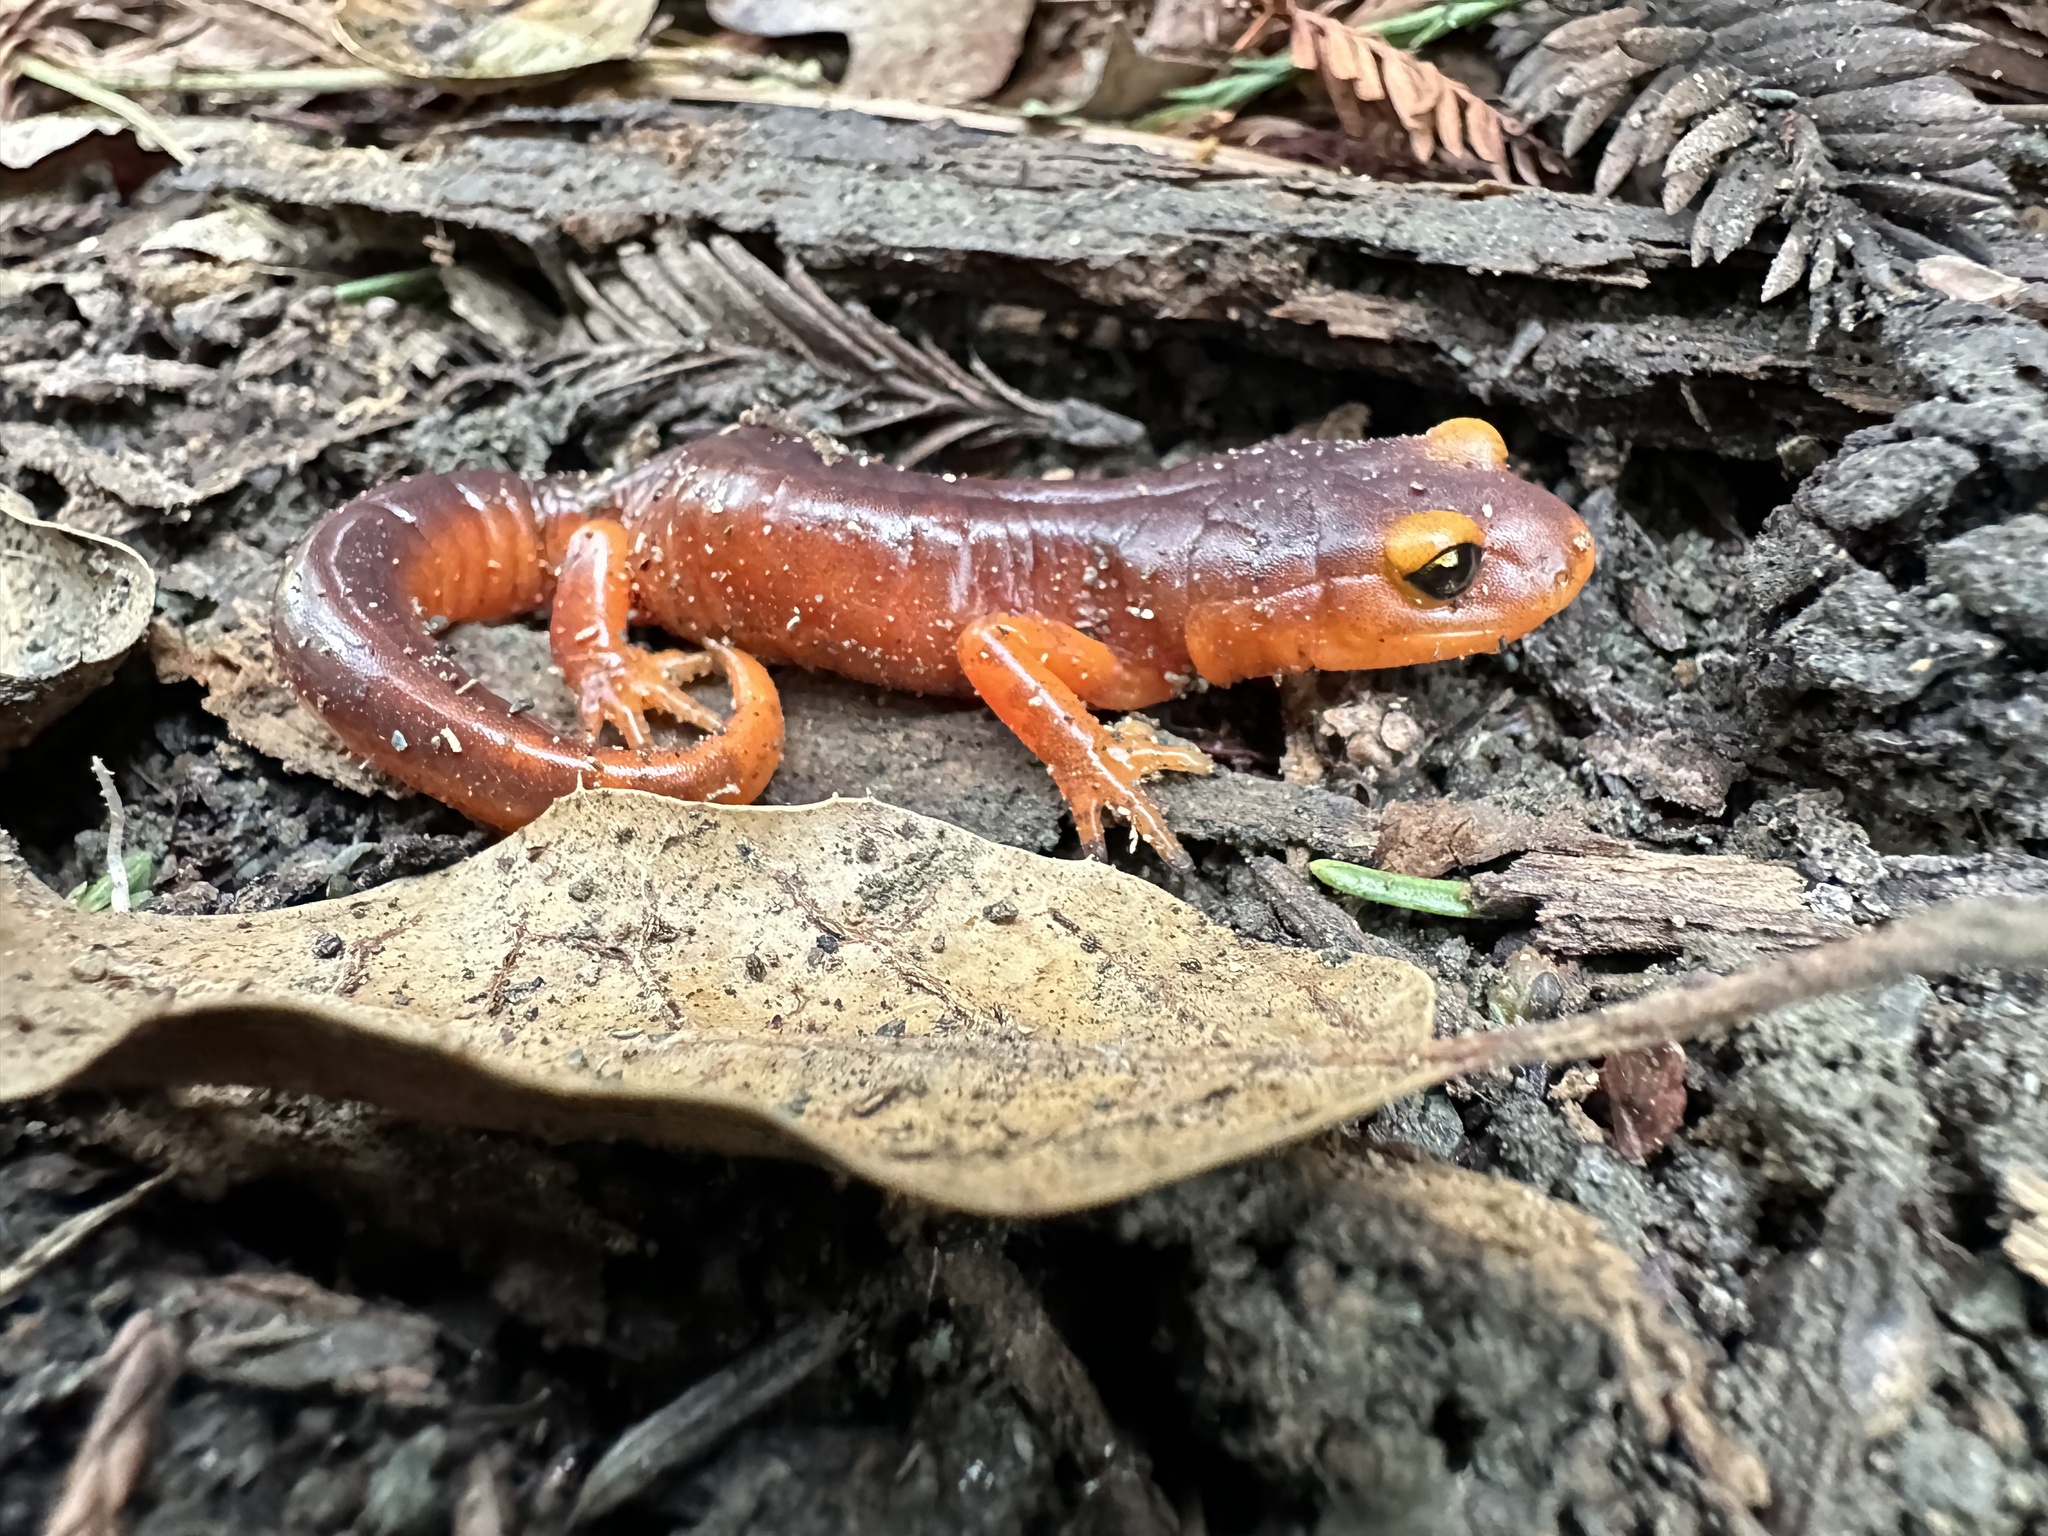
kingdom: Animalia
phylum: Chordata
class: Amphibia
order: Caudata
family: Plethodontidae
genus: Ensatina
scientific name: Ensatina eschscholtzii
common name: Ensatina
